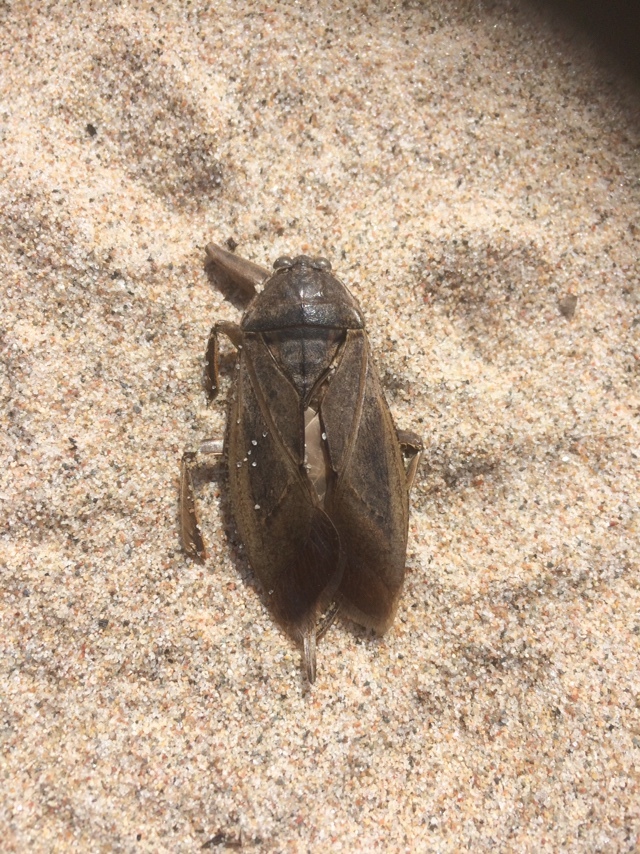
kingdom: Animalia
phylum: Arthropoda
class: Insecta
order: Hemiptera
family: Belostomatidae
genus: Lethocerus
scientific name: Lethocerus americanus
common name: Giant water bug
